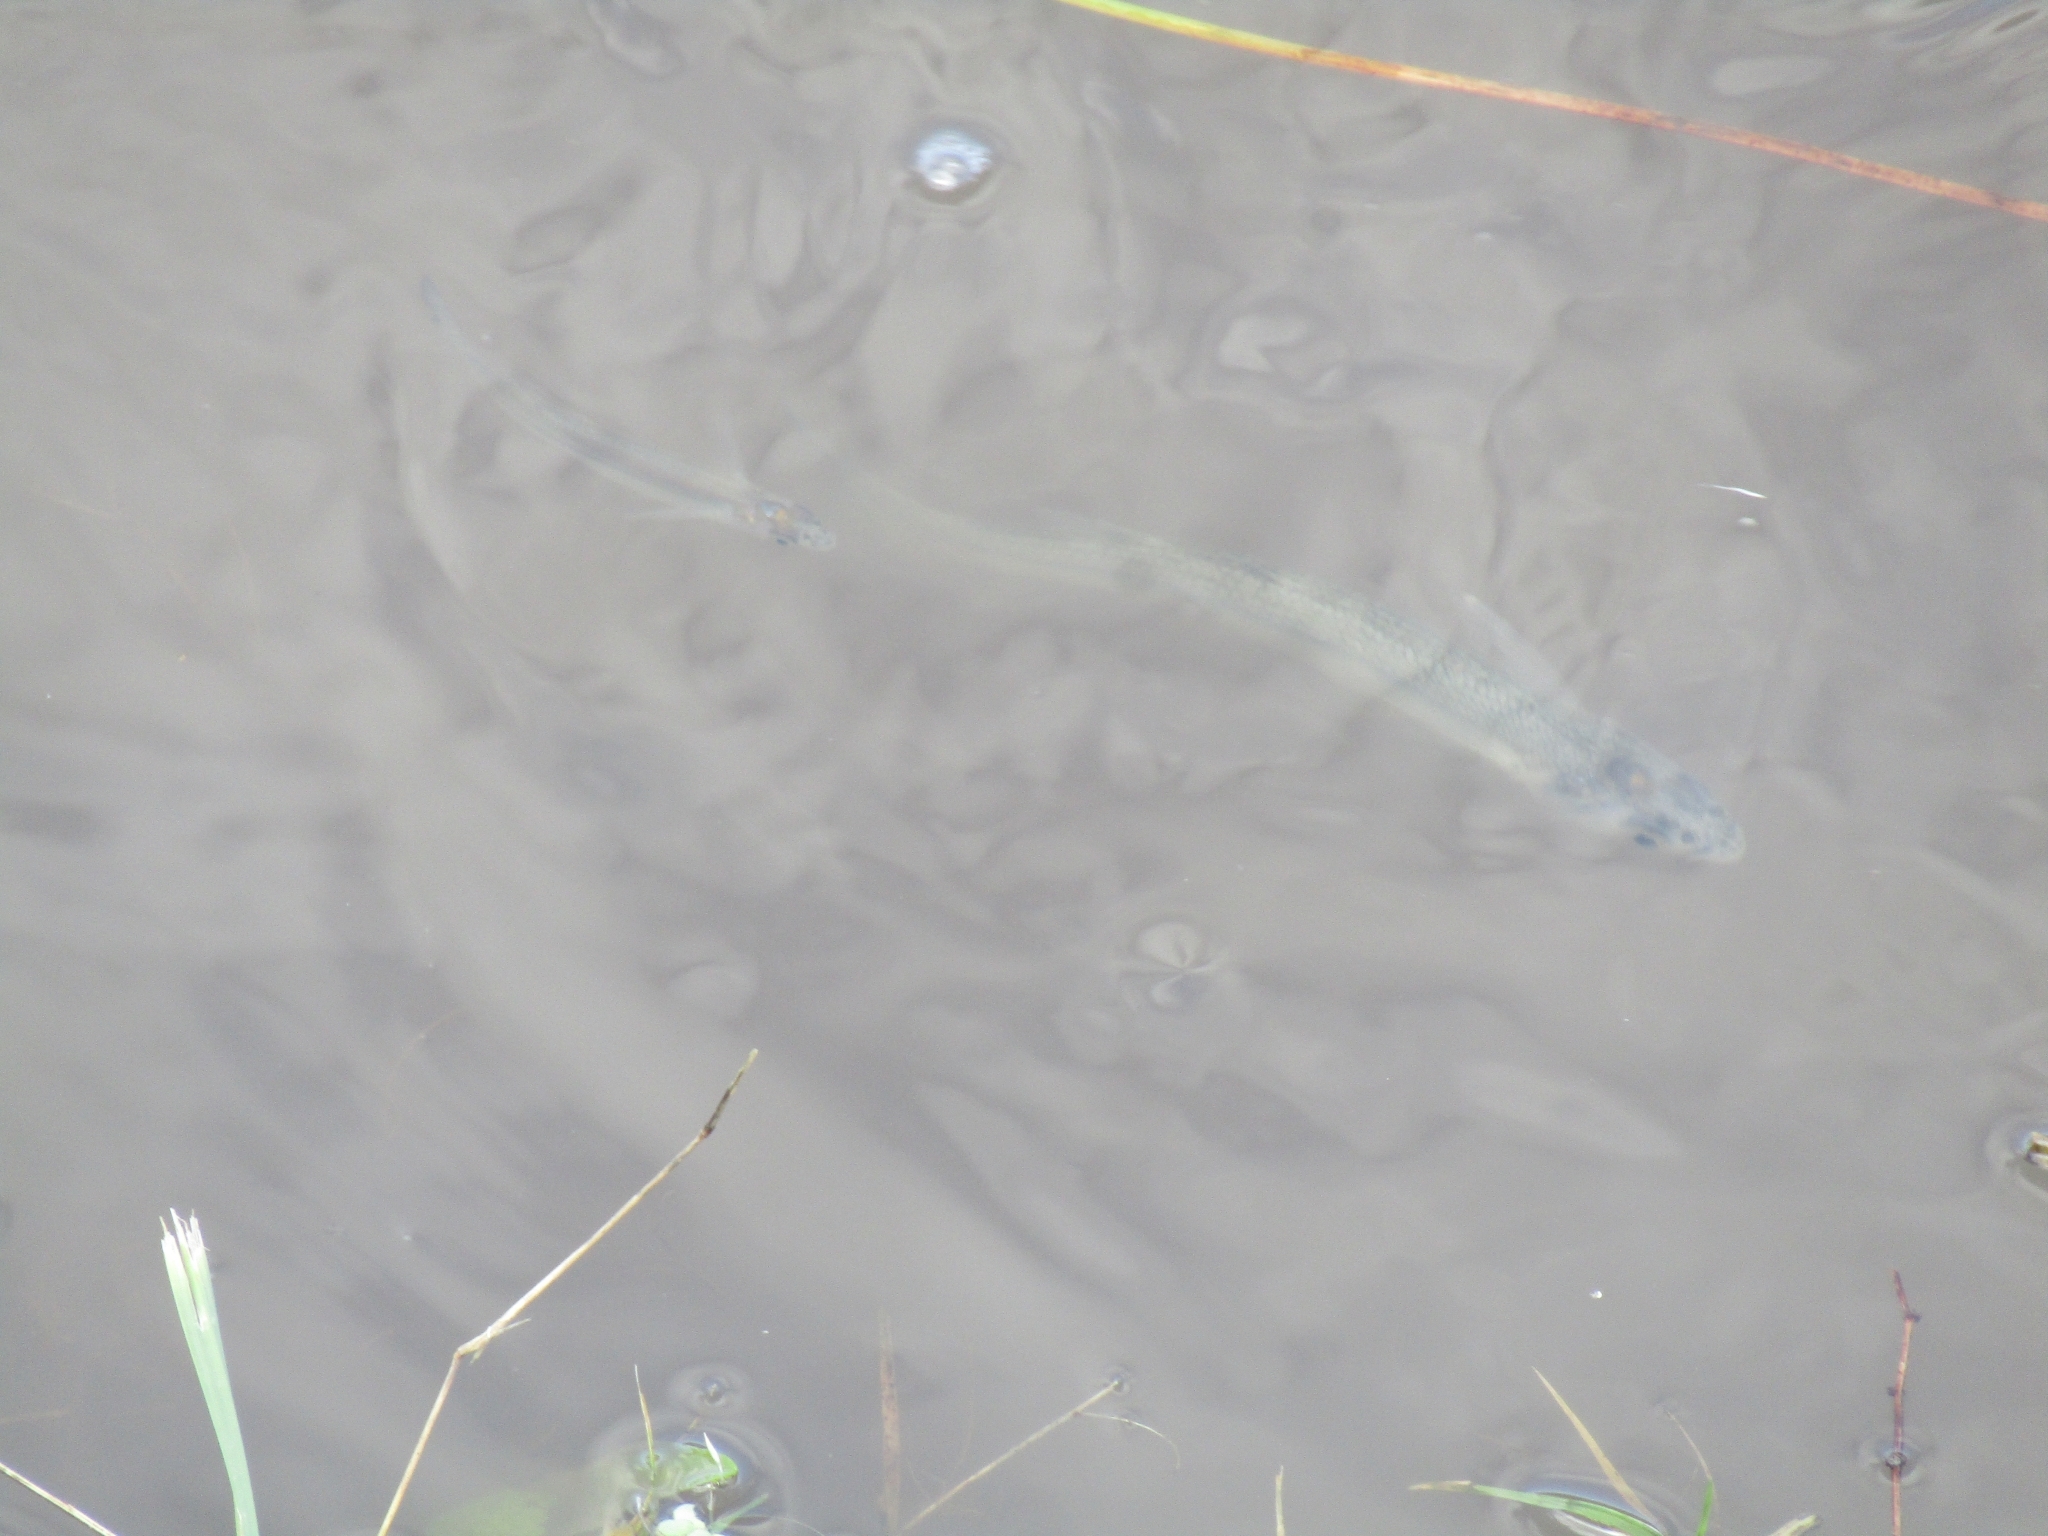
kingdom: Animalia
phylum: Chordata
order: Atheriniformes
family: Atherinopsidae
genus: Odontesthes
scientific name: Odontesthes bonariensis
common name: Argentinian silverside
